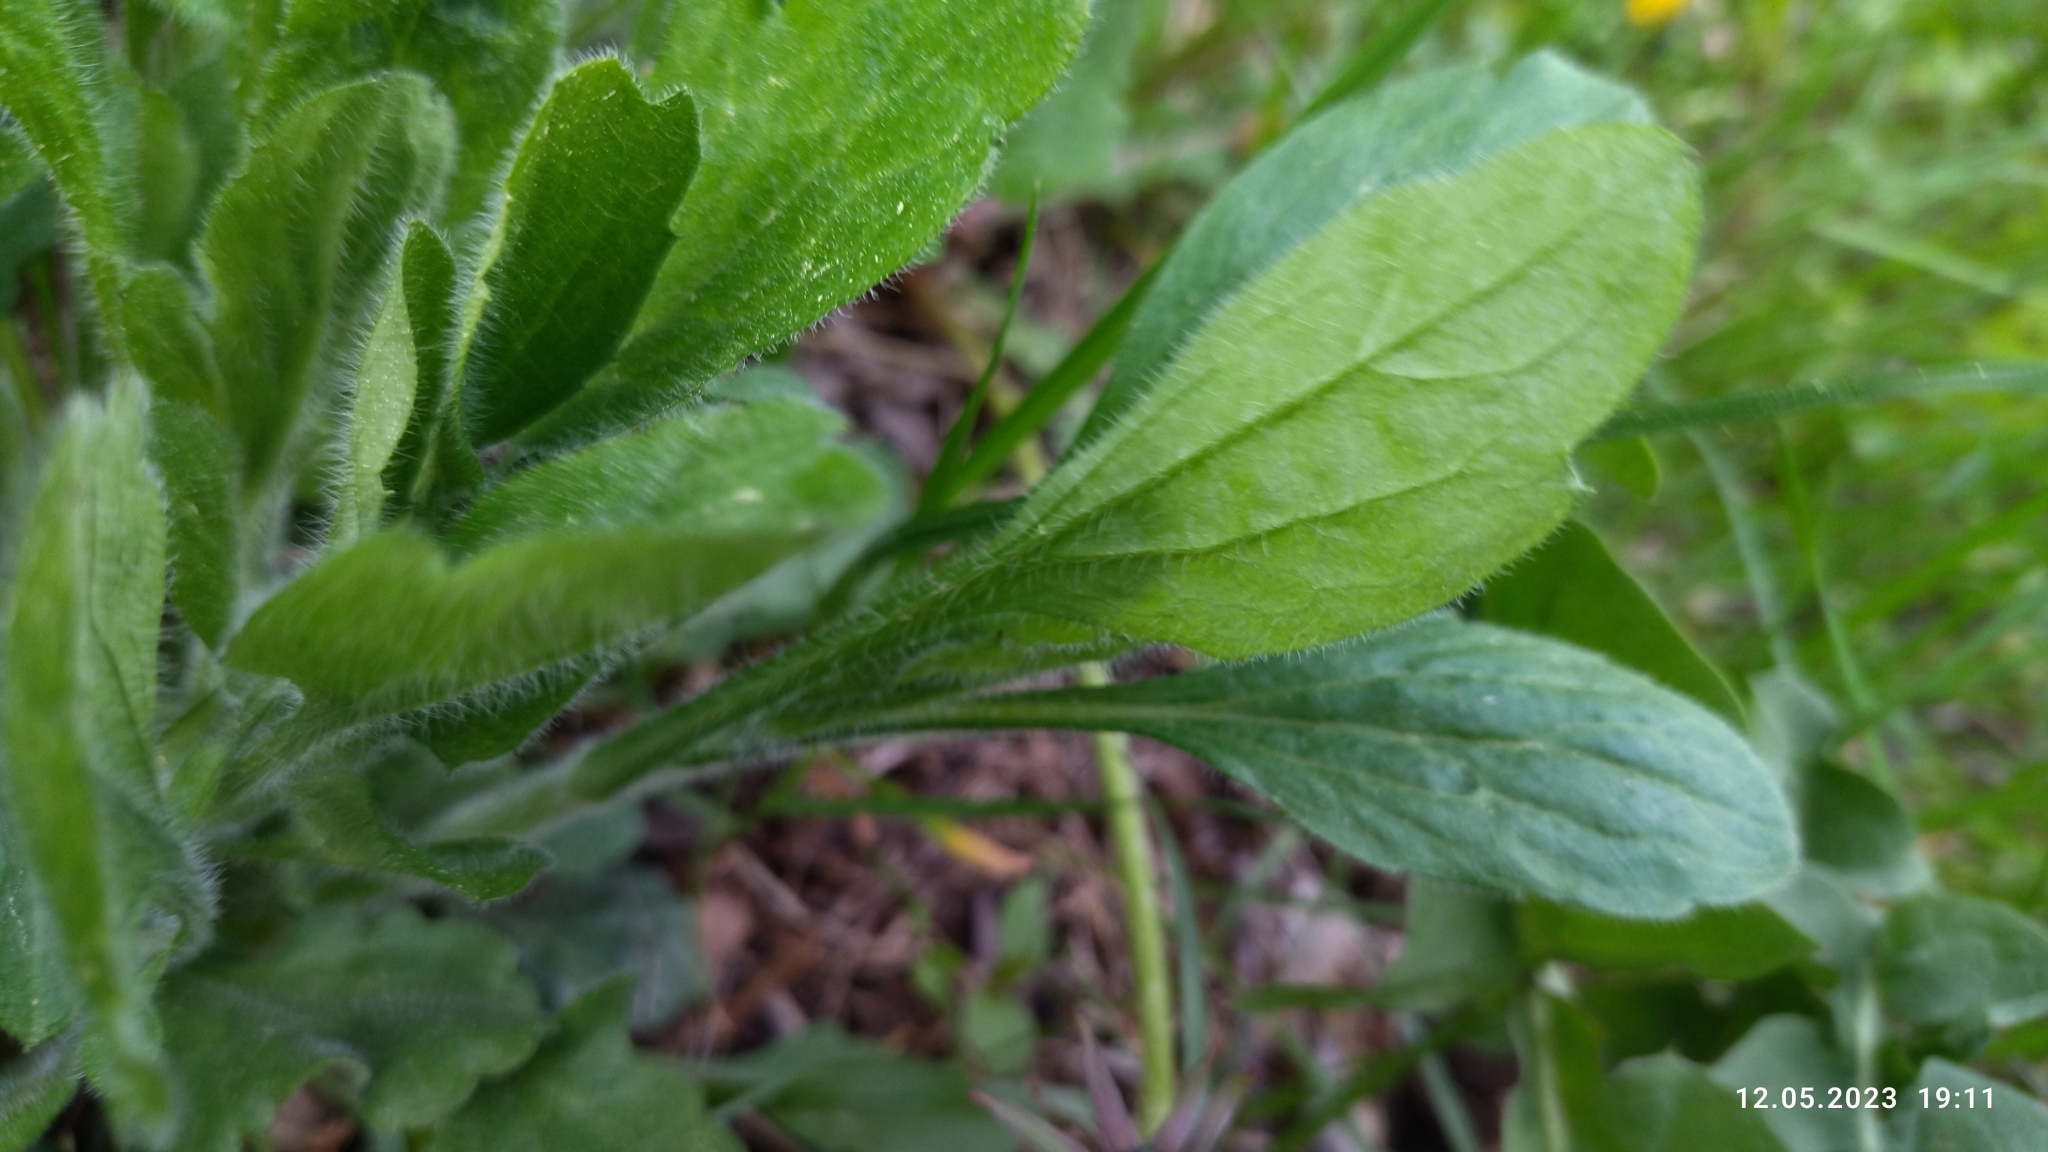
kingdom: Plantae
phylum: Tracheophyta
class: Magnoliopsida
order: Asterales
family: Asteraceae
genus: Erigeron
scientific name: Erigeron annuus
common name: Tall fleabane
